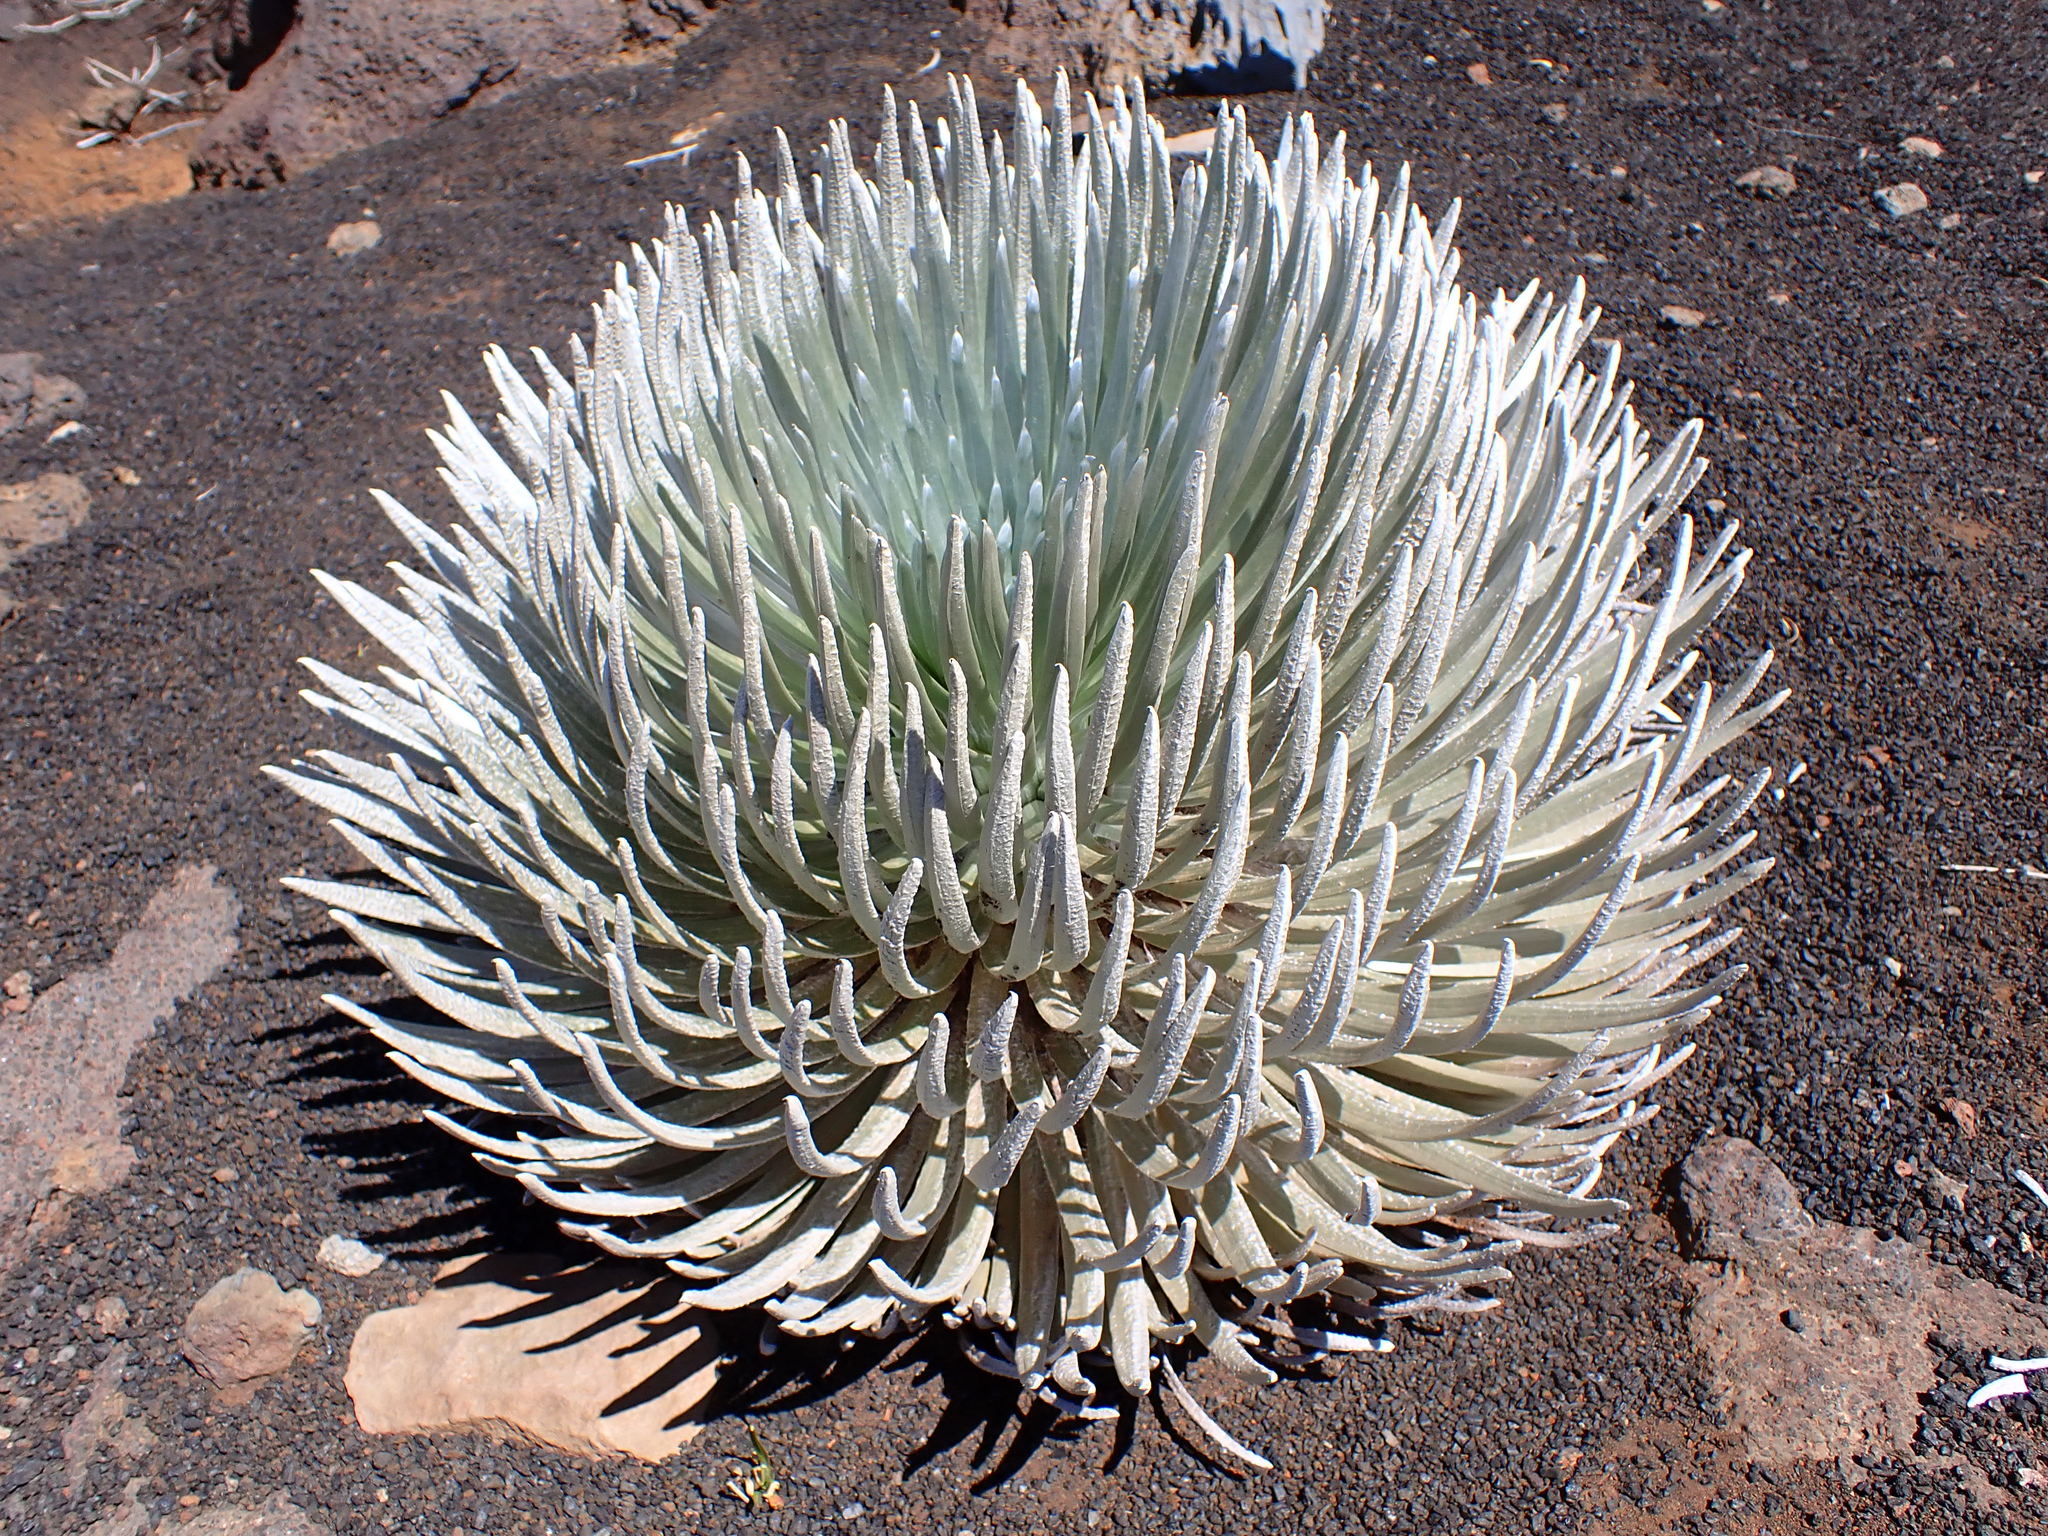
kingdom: Plantae
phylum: Tracheophyta
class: Magnoliopsida
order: Asterales
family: Asteraceae
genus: Argyroxiphium
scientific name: Argyroxiphium sandwicense
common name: Silversword
